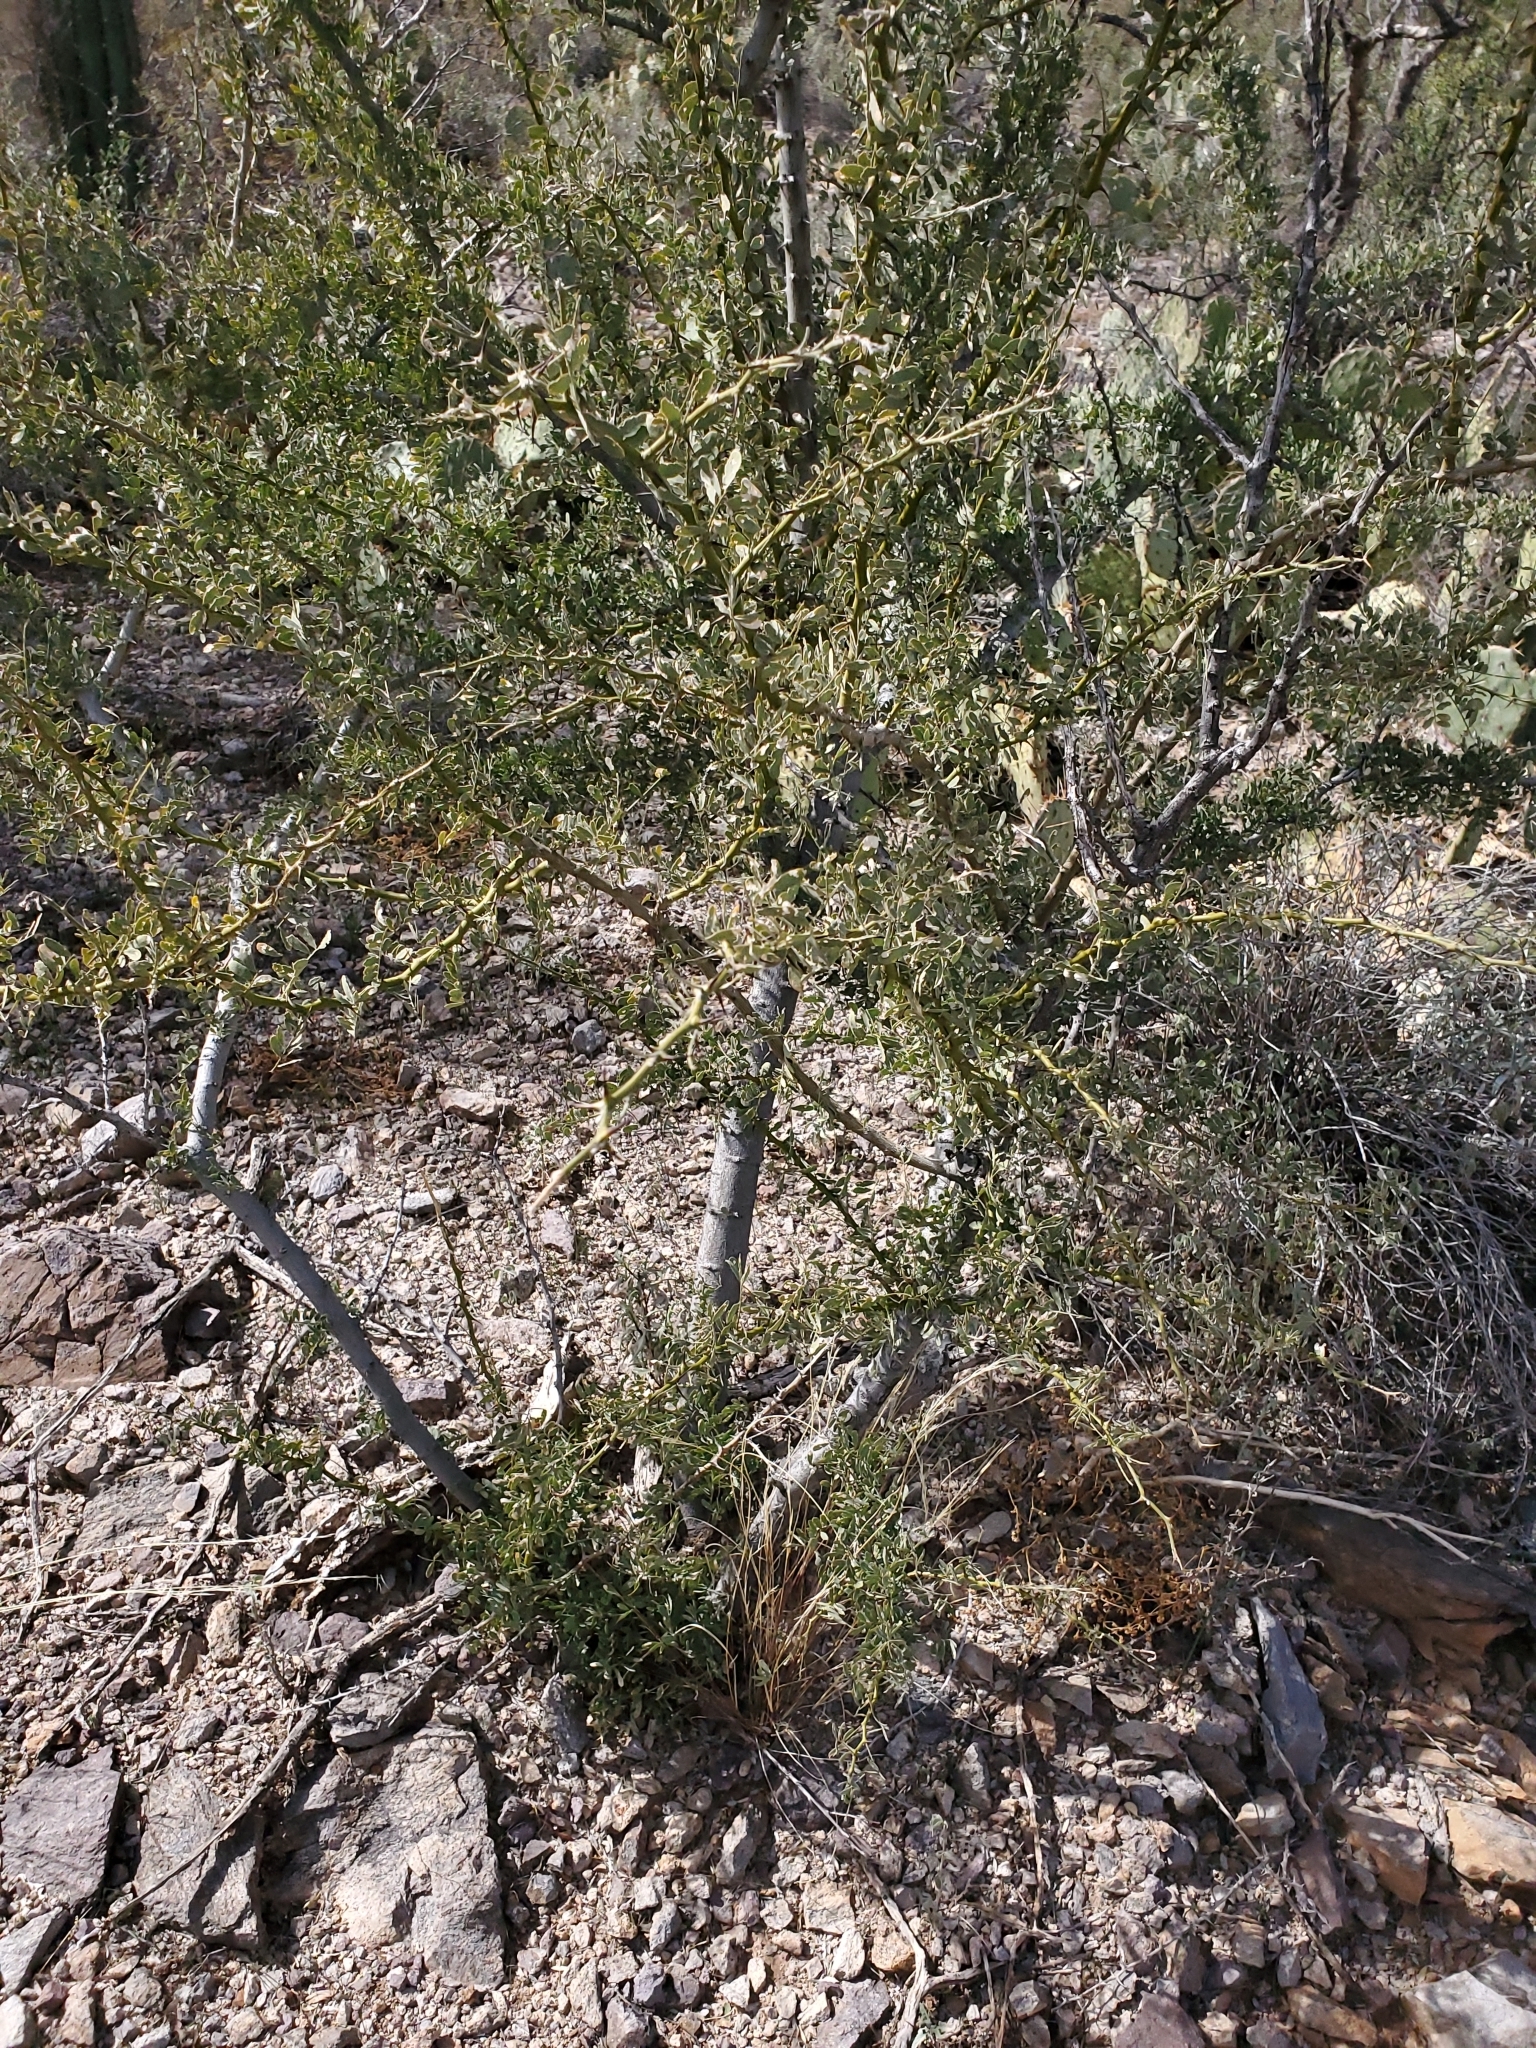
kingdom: Plantae
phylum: Tracheophyta
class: Magnoliopsida
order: Fabales
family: Fabaceae
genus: Olneya
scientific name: Olneya tesota
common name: Desert ironwood
